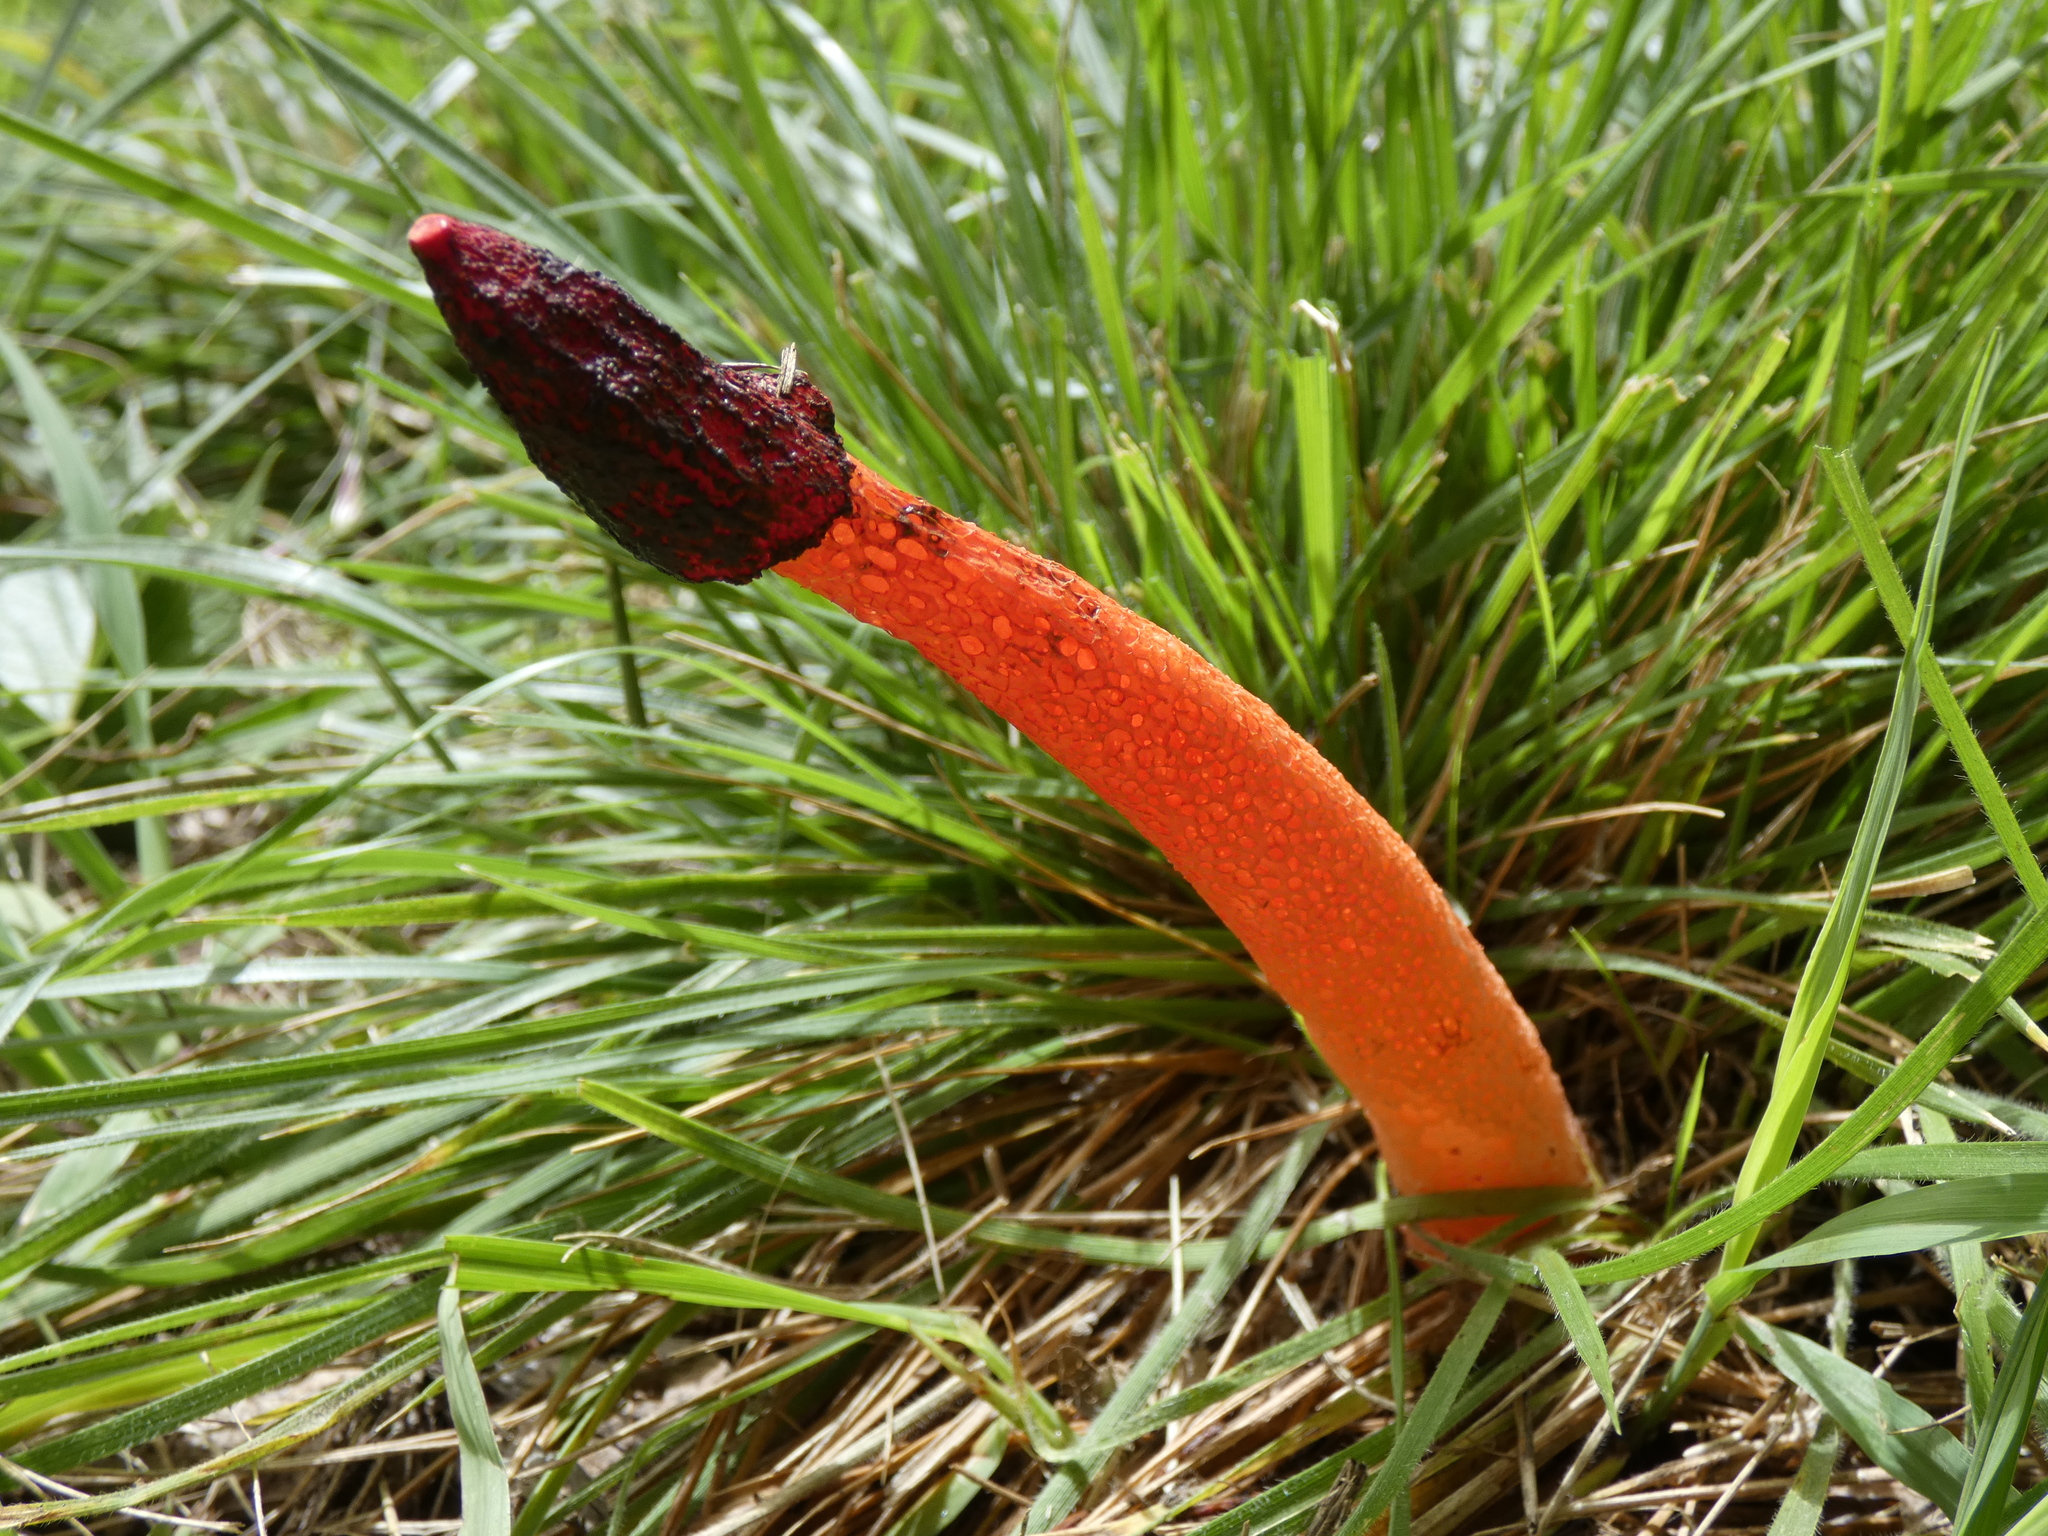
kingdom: Fungi
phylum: Basidiomycota
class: Agaricomycetes
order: Phallales
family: Phallaceae
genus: Phallus
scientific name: Phallus rugulosus
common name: Wrinkly stinkhorn
